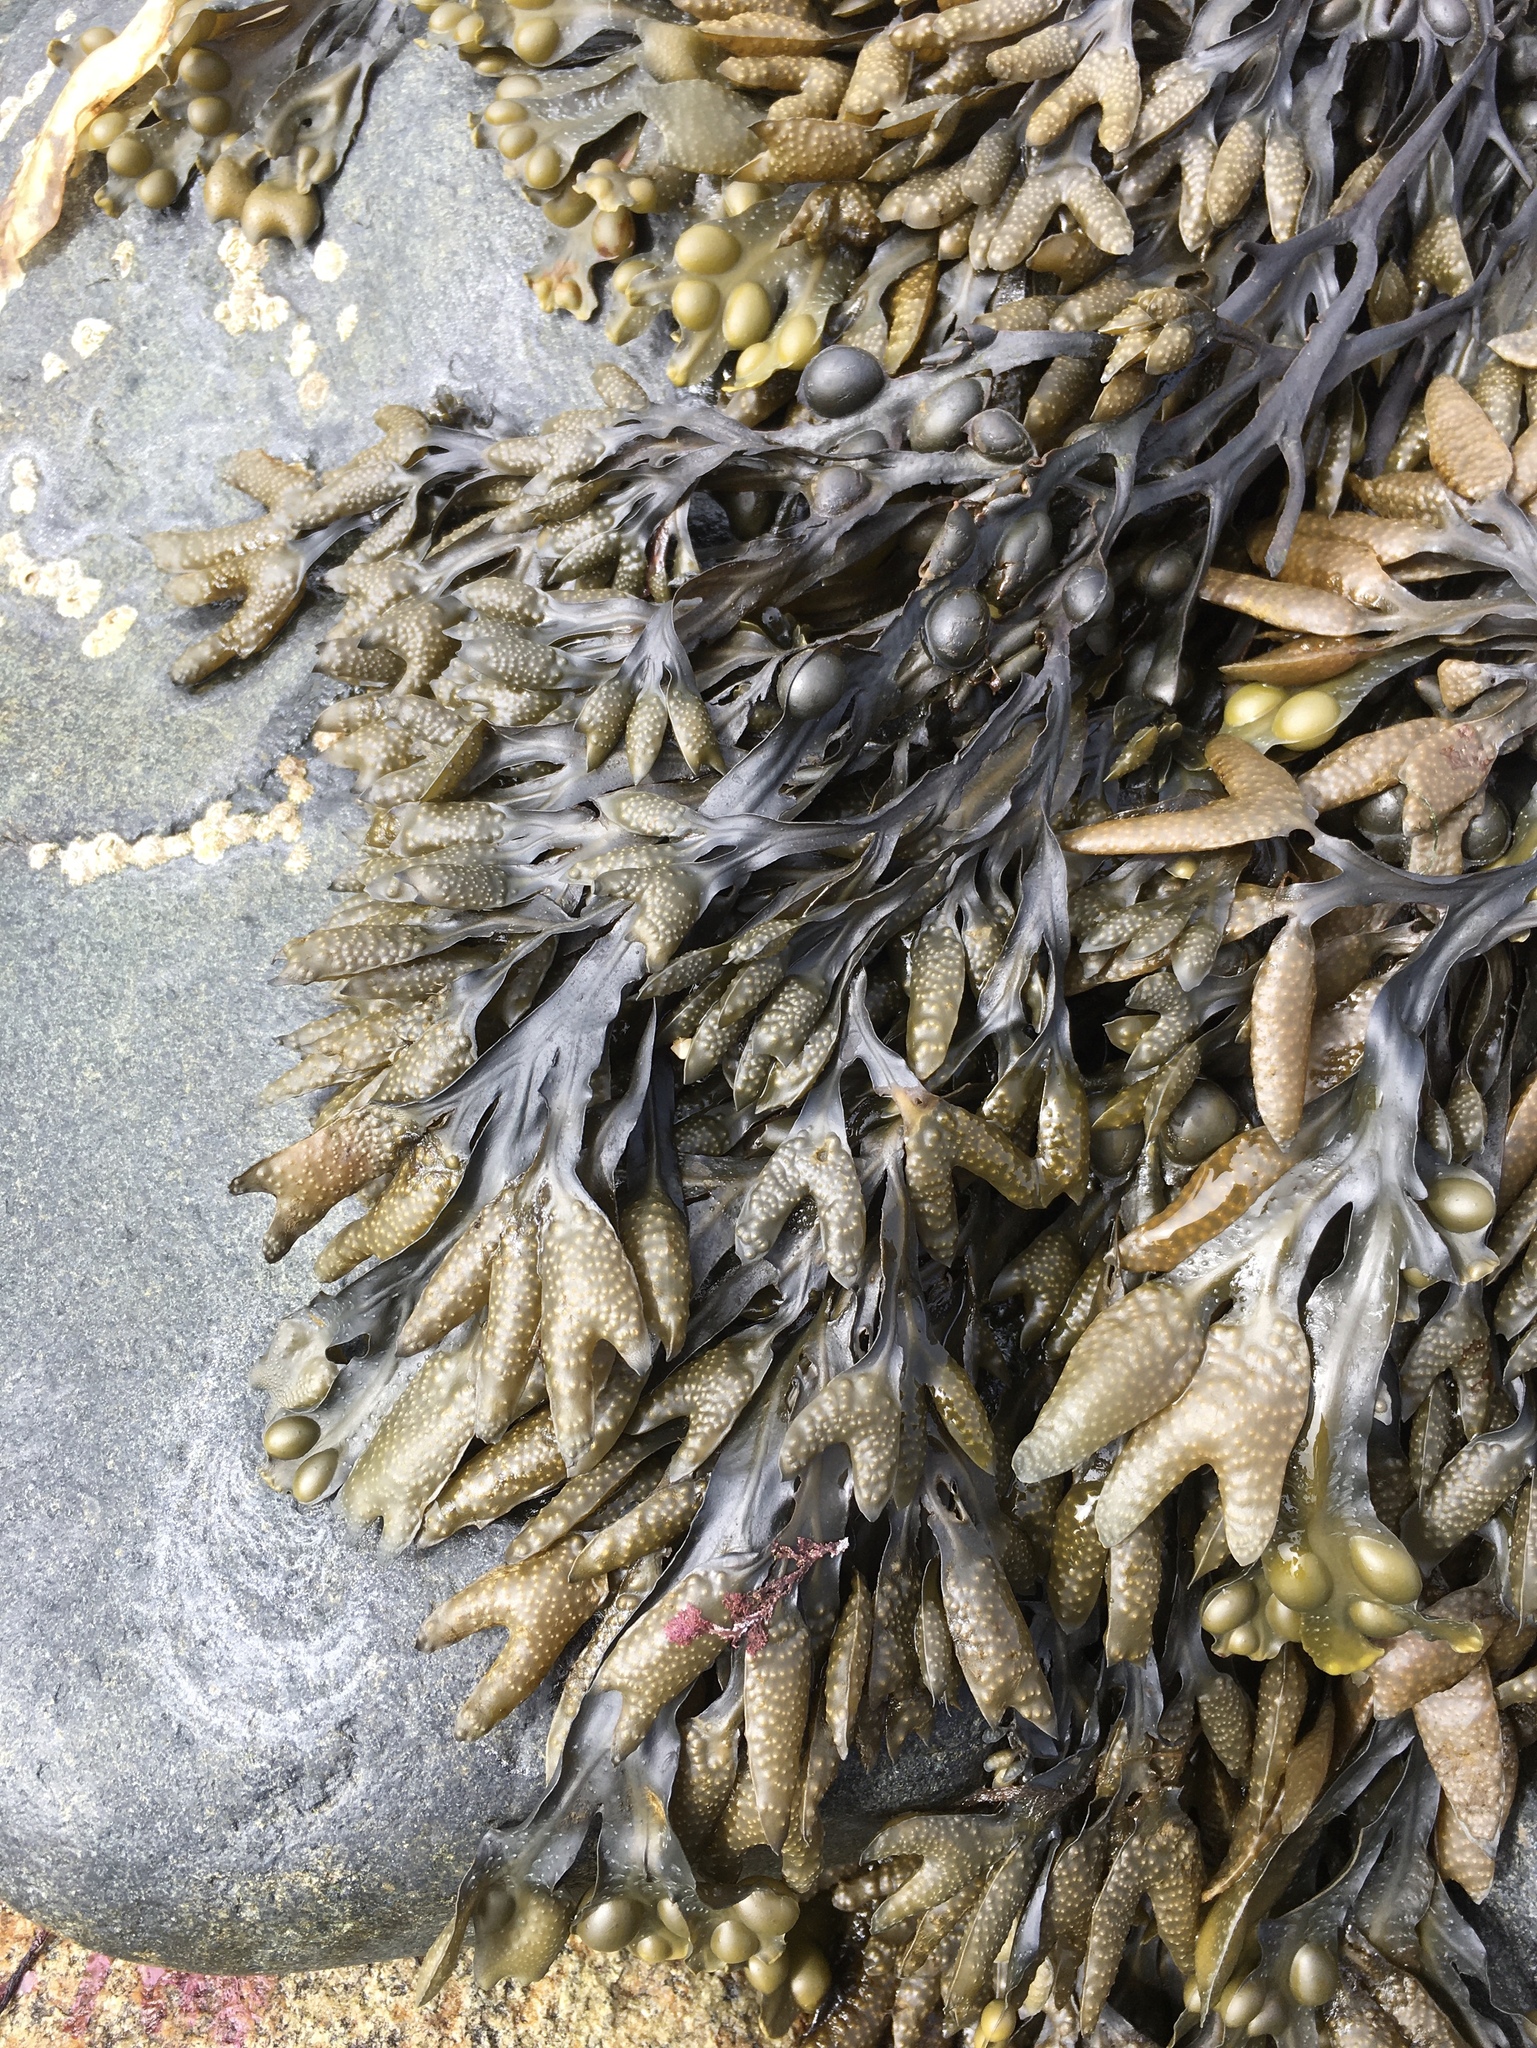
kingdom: Chromista
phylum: Ochrophyta
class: Phaeophyceae
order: Fucales
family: Fucaceae
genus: Fucus
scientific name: Fucus vesiculosus
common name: Bladder wrack
